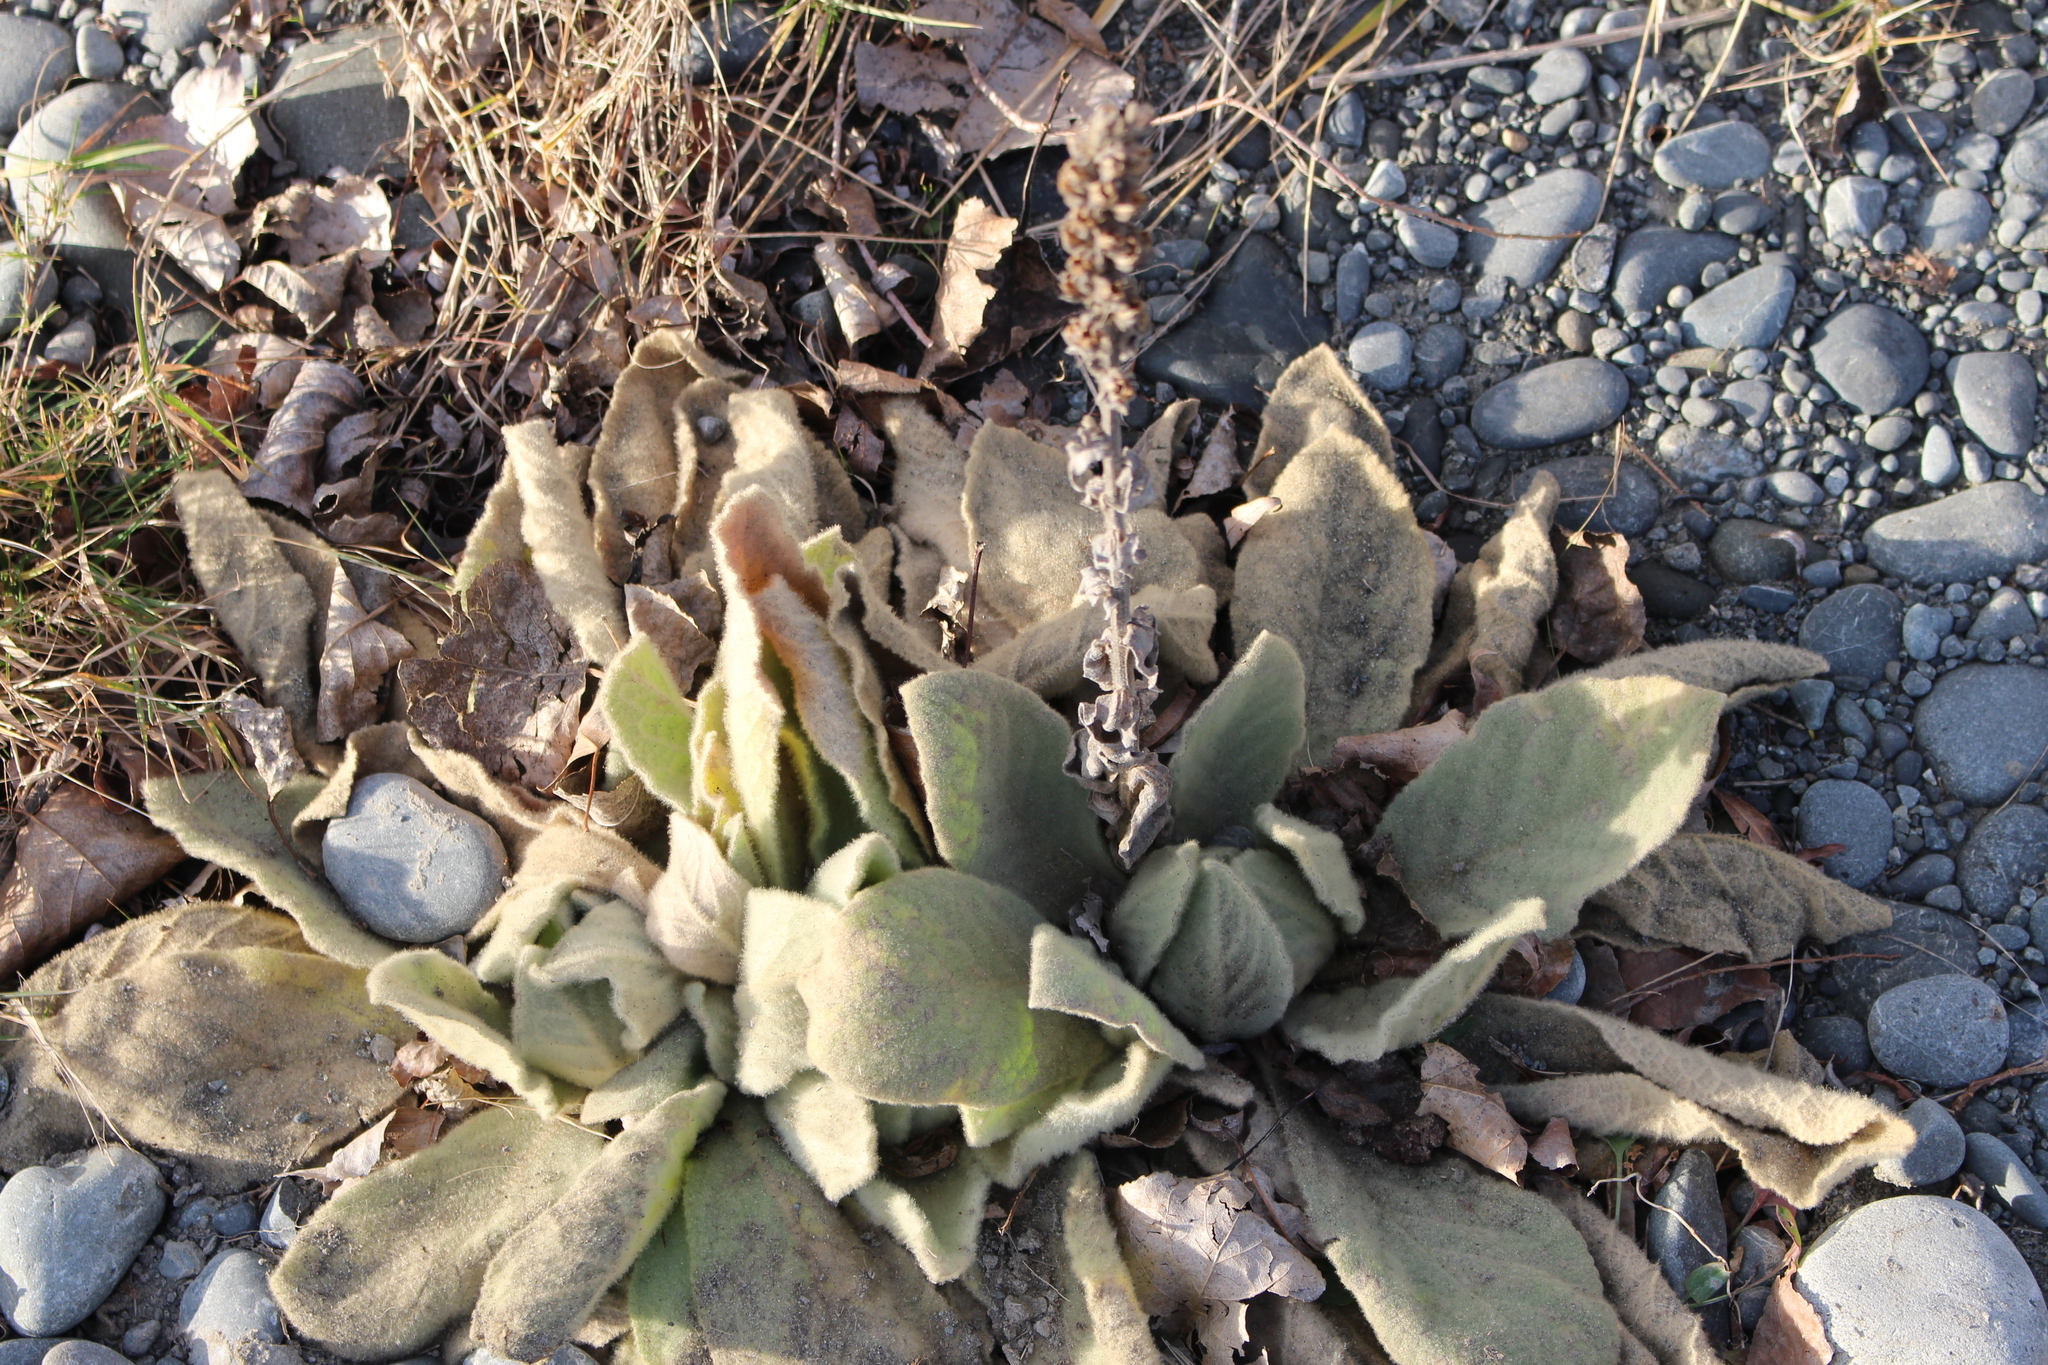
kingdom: Plantae
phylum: Tracheophyta
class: Magnoliopsida
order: Lamiales
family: Scrophulariaceae
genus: Verbascum
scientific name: Verbascum thapsus
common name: Common mullein
